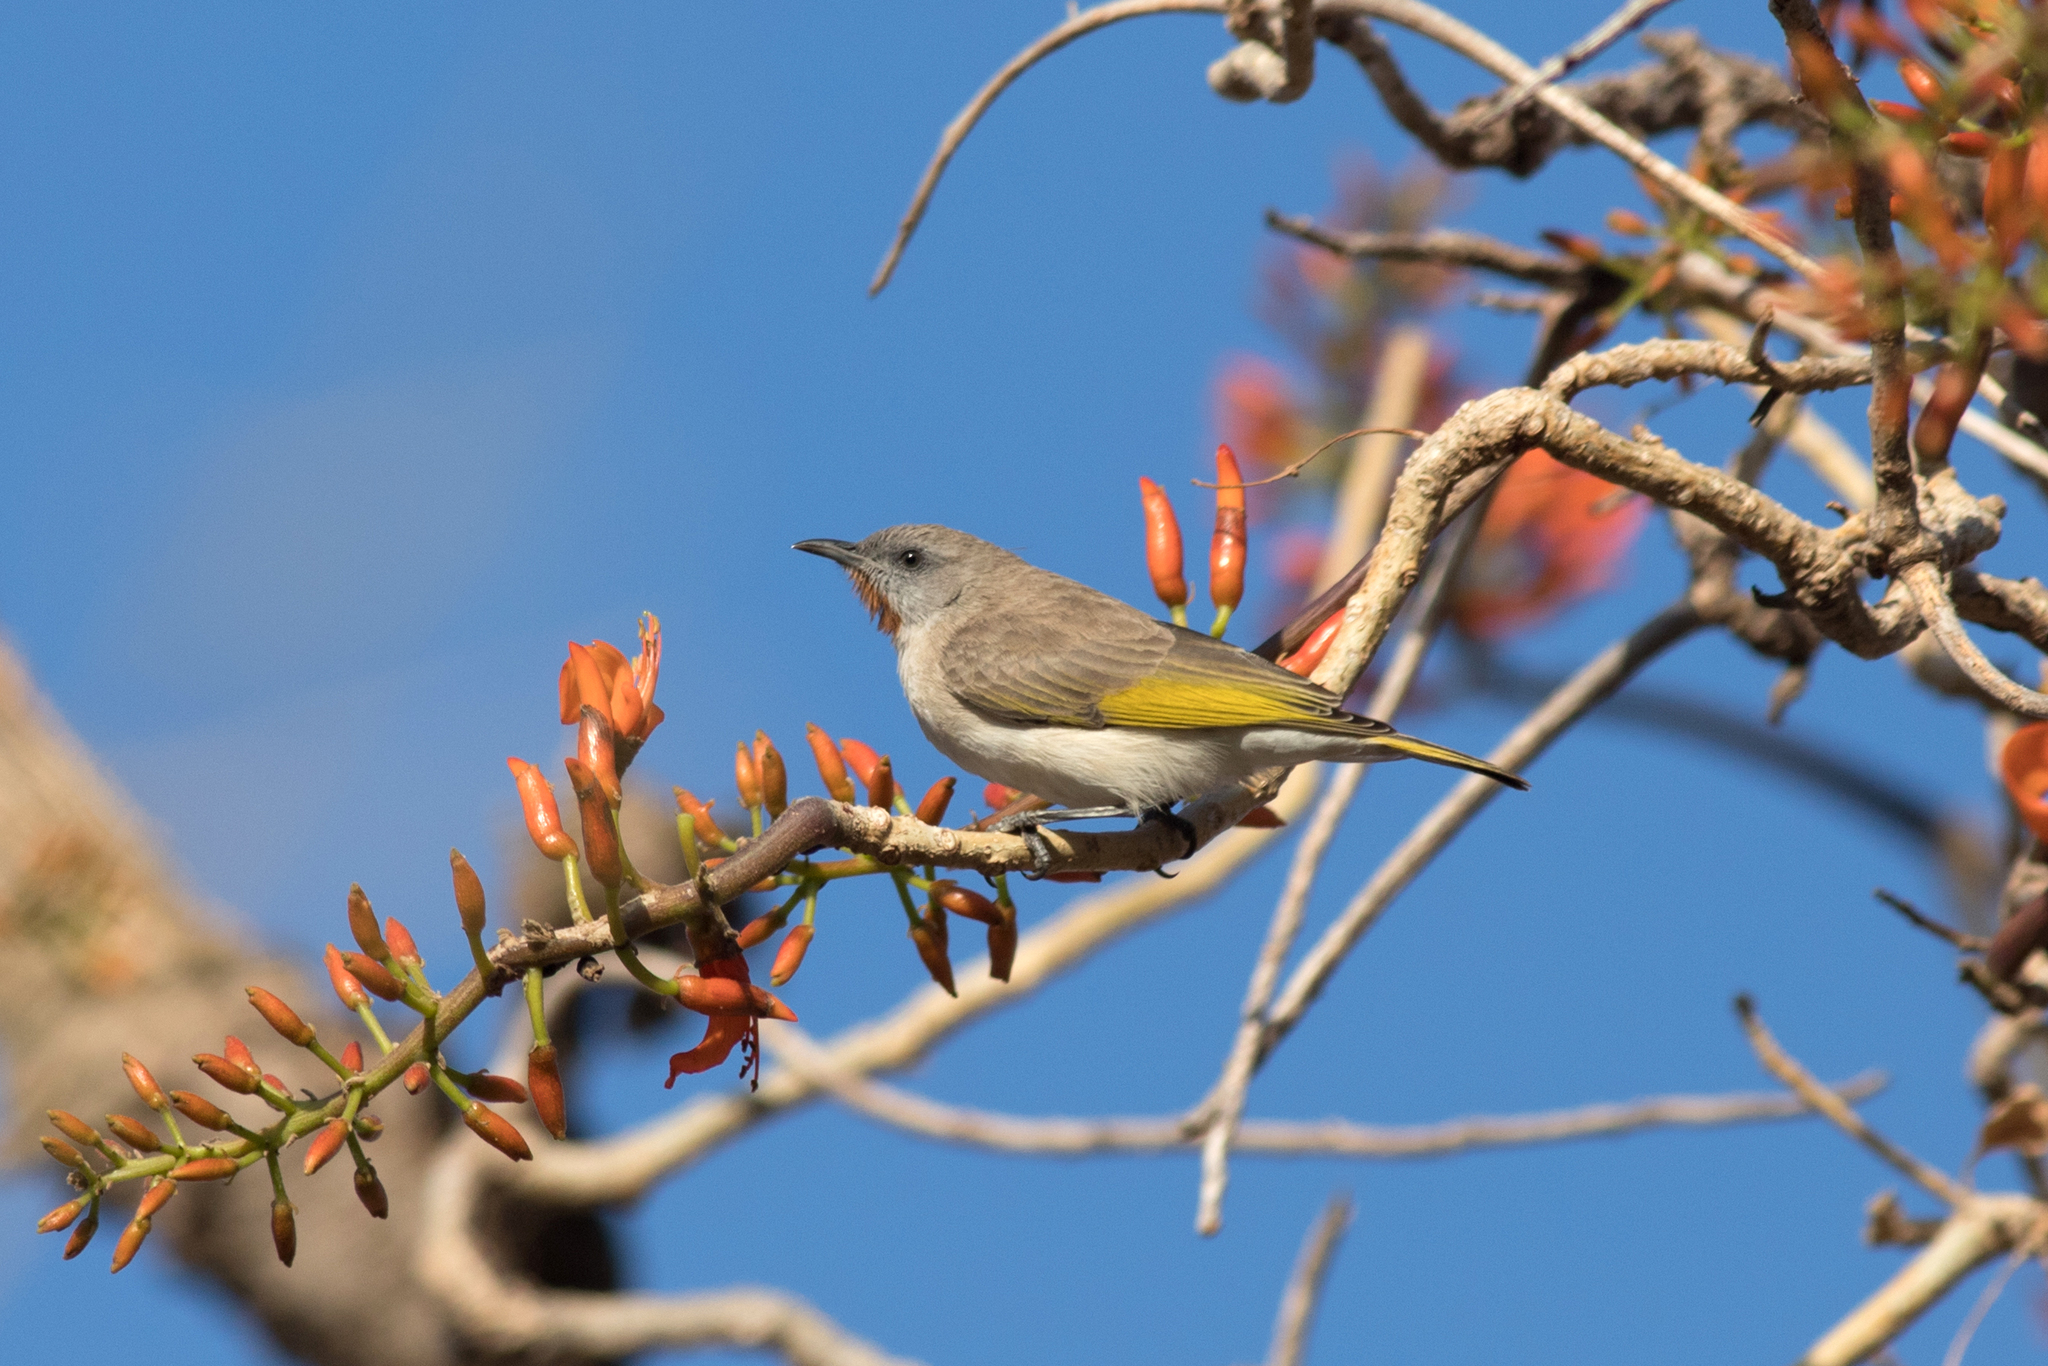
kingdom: Animalia
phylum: Chordata
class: Aves
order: Passeriformes
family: Meliphagidae
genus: Conopophila
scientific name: Conopophila rufogularis
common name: Rufous-throated honeyeater
